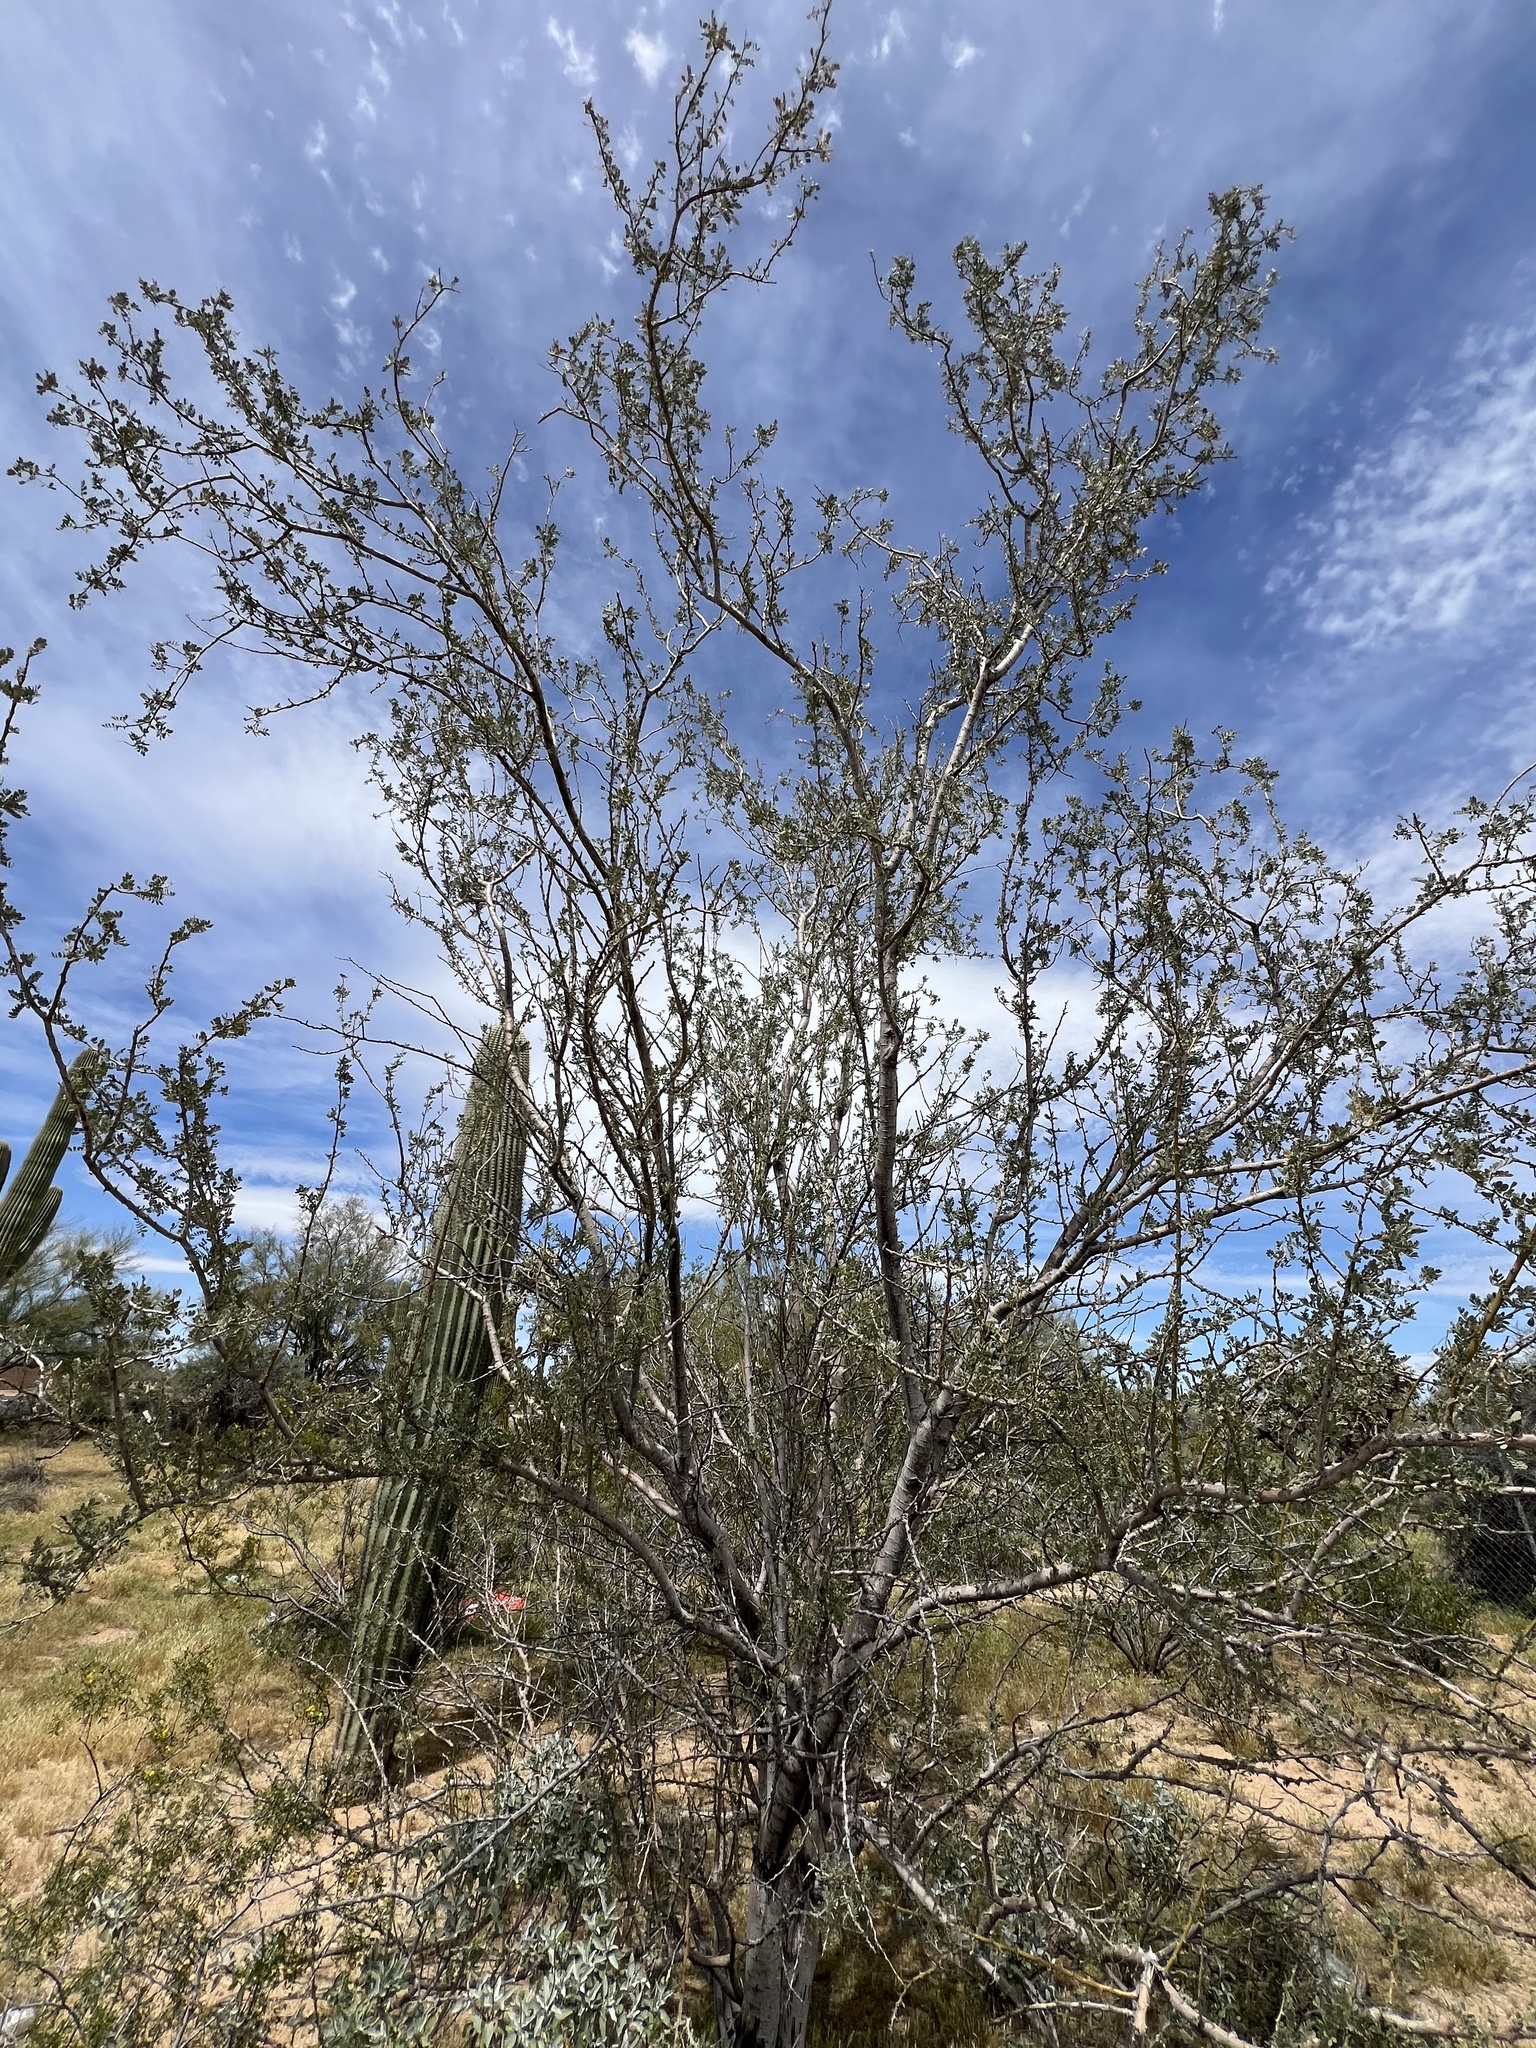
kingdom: Plantae
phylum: Tracheophyta
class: Magnoliopsida
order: Fabales
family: Fabaceae
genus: Olneya
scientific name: Olneya tesota
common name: Desert ironwood
